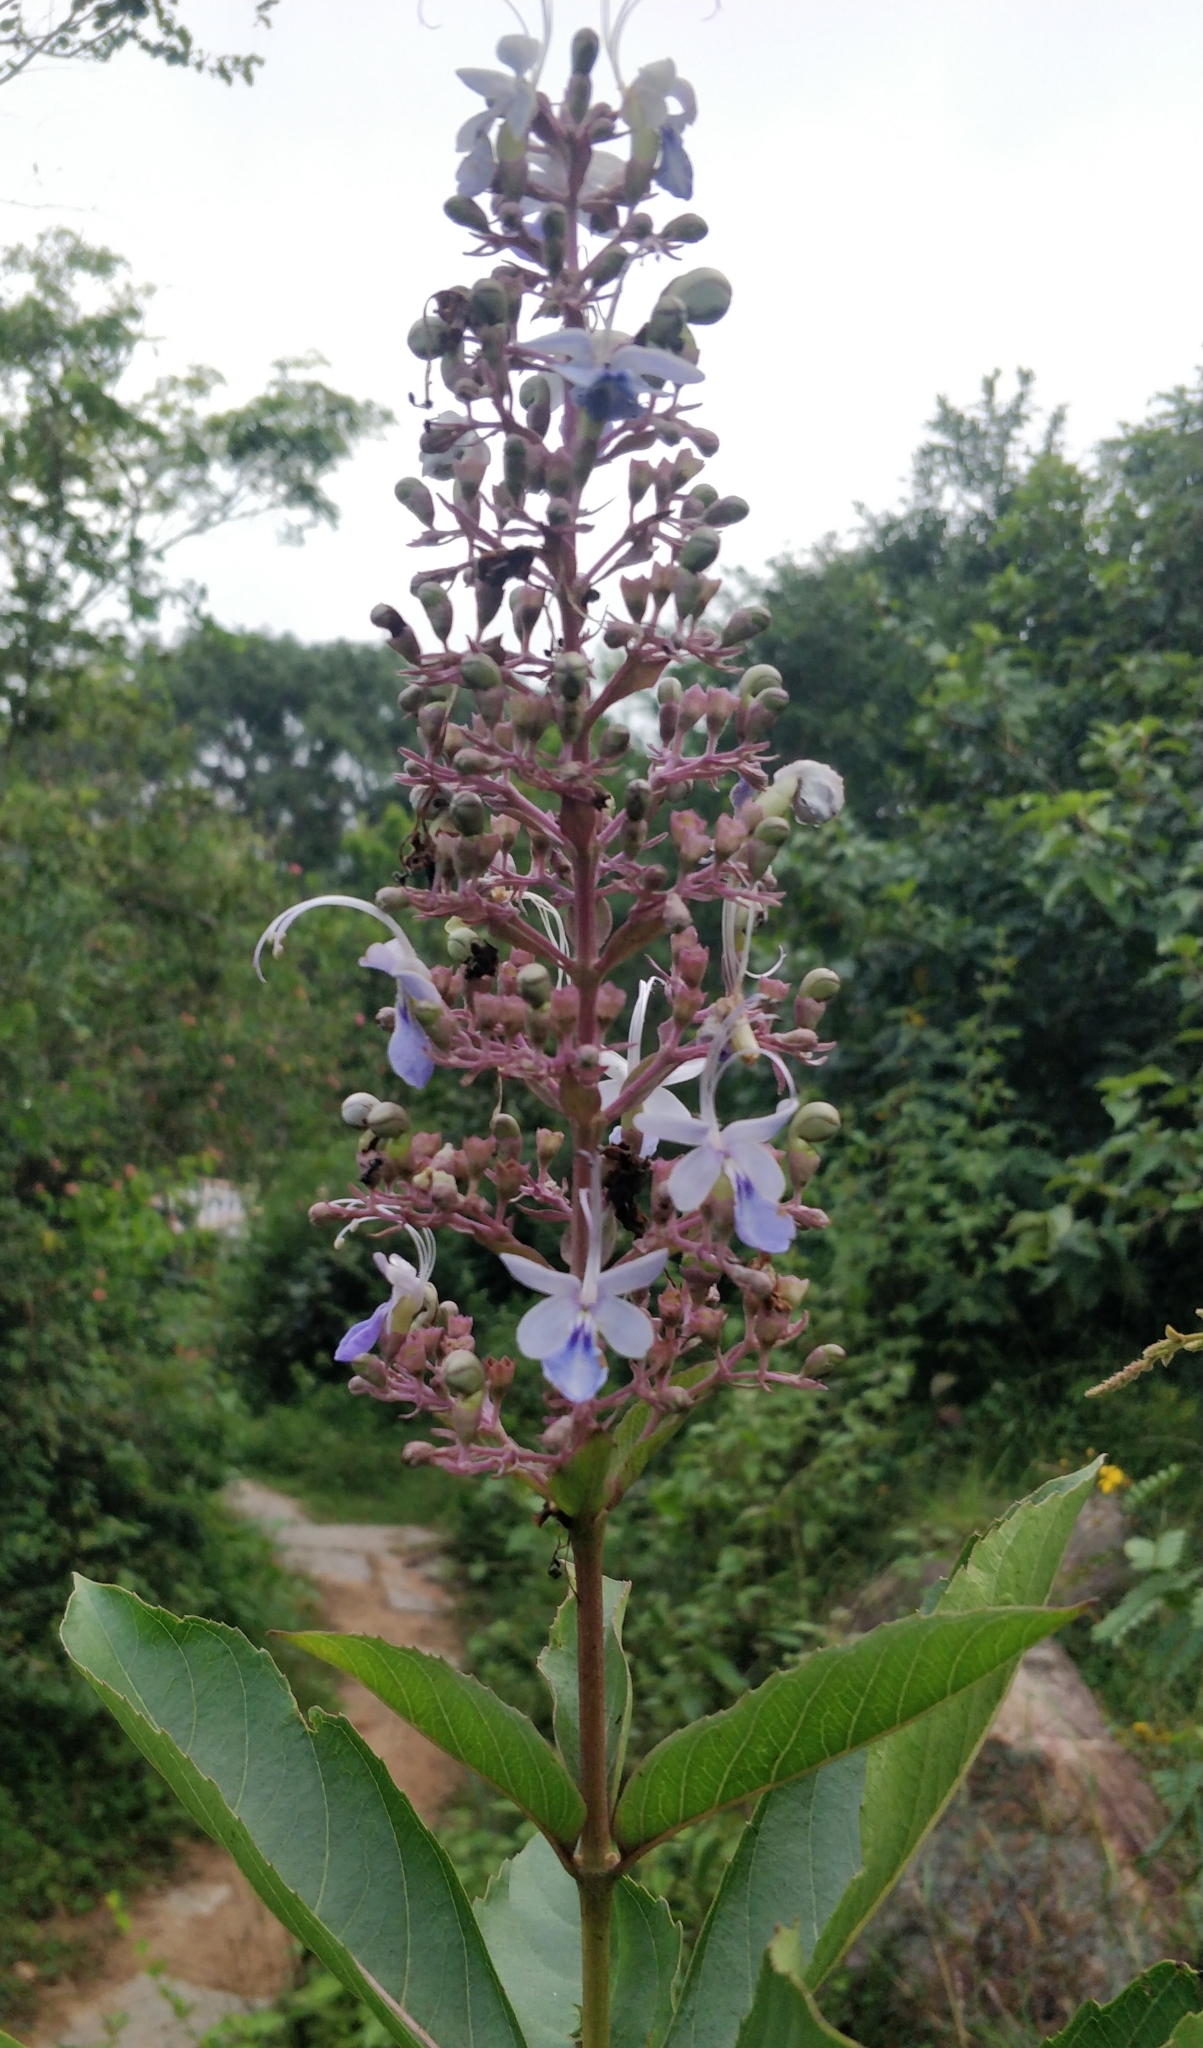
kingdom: Plantae
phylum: Tracheophyta
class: Magnoliopsida
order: Lamiales
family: Lamiaceae
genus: Rotheca
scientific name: Rotheca serrata
